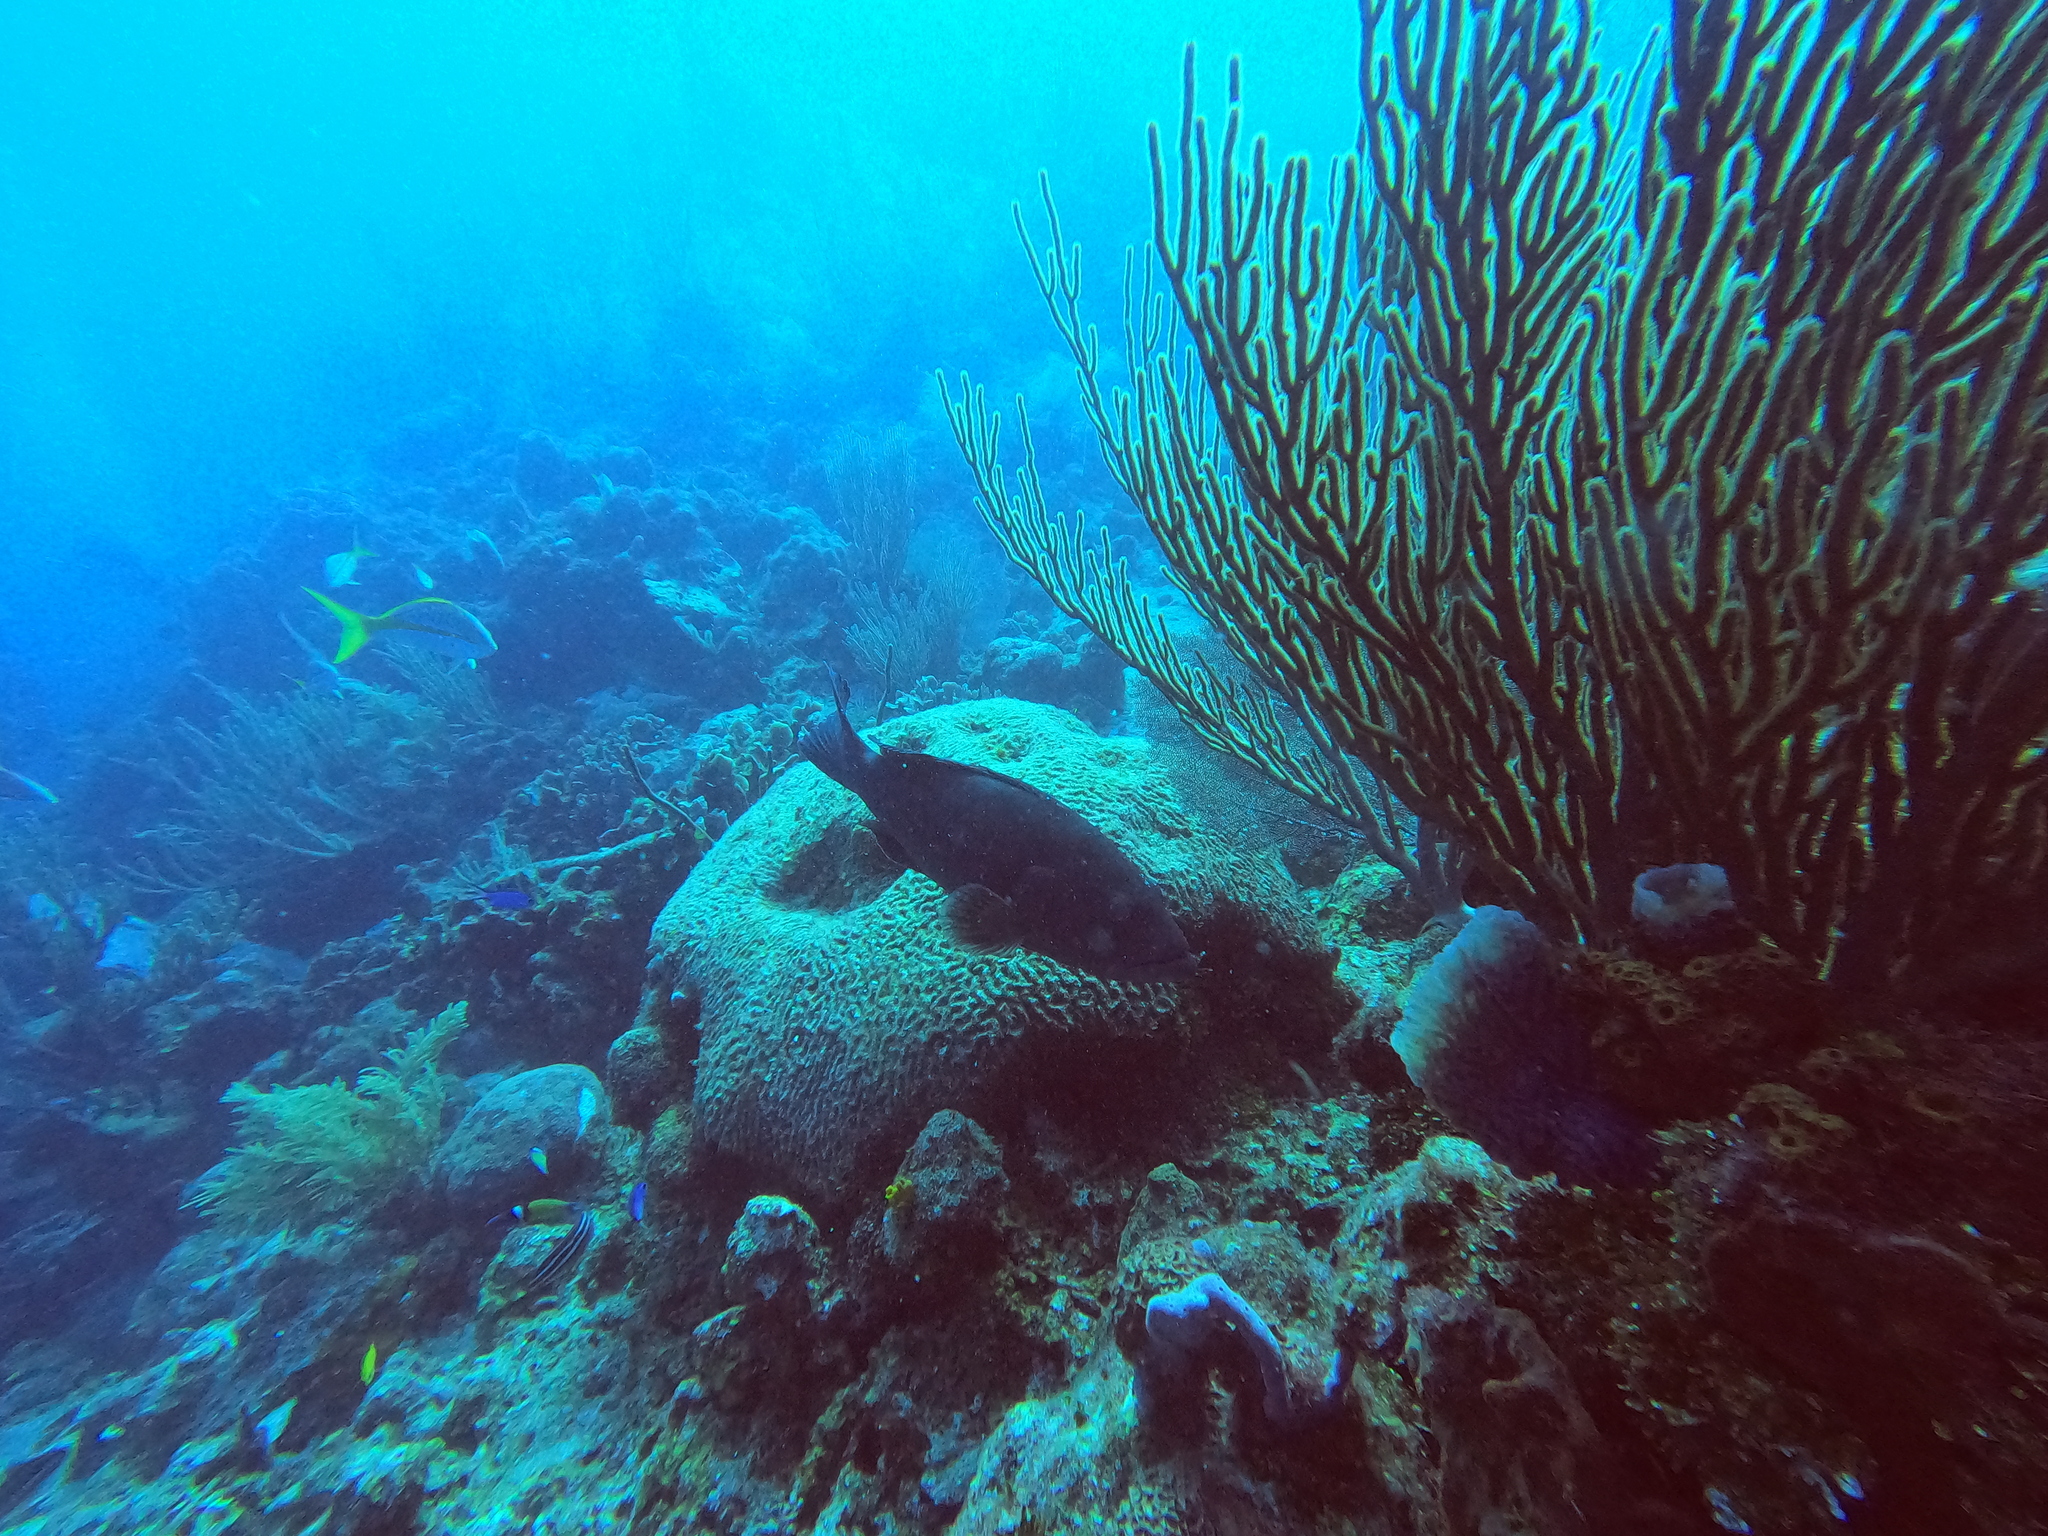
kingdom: Animalia
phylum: Chordata
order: Perciformes
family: Serranidae
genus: Mycteroperca
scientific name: Mycteroperca bonaci
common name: Black grouper
